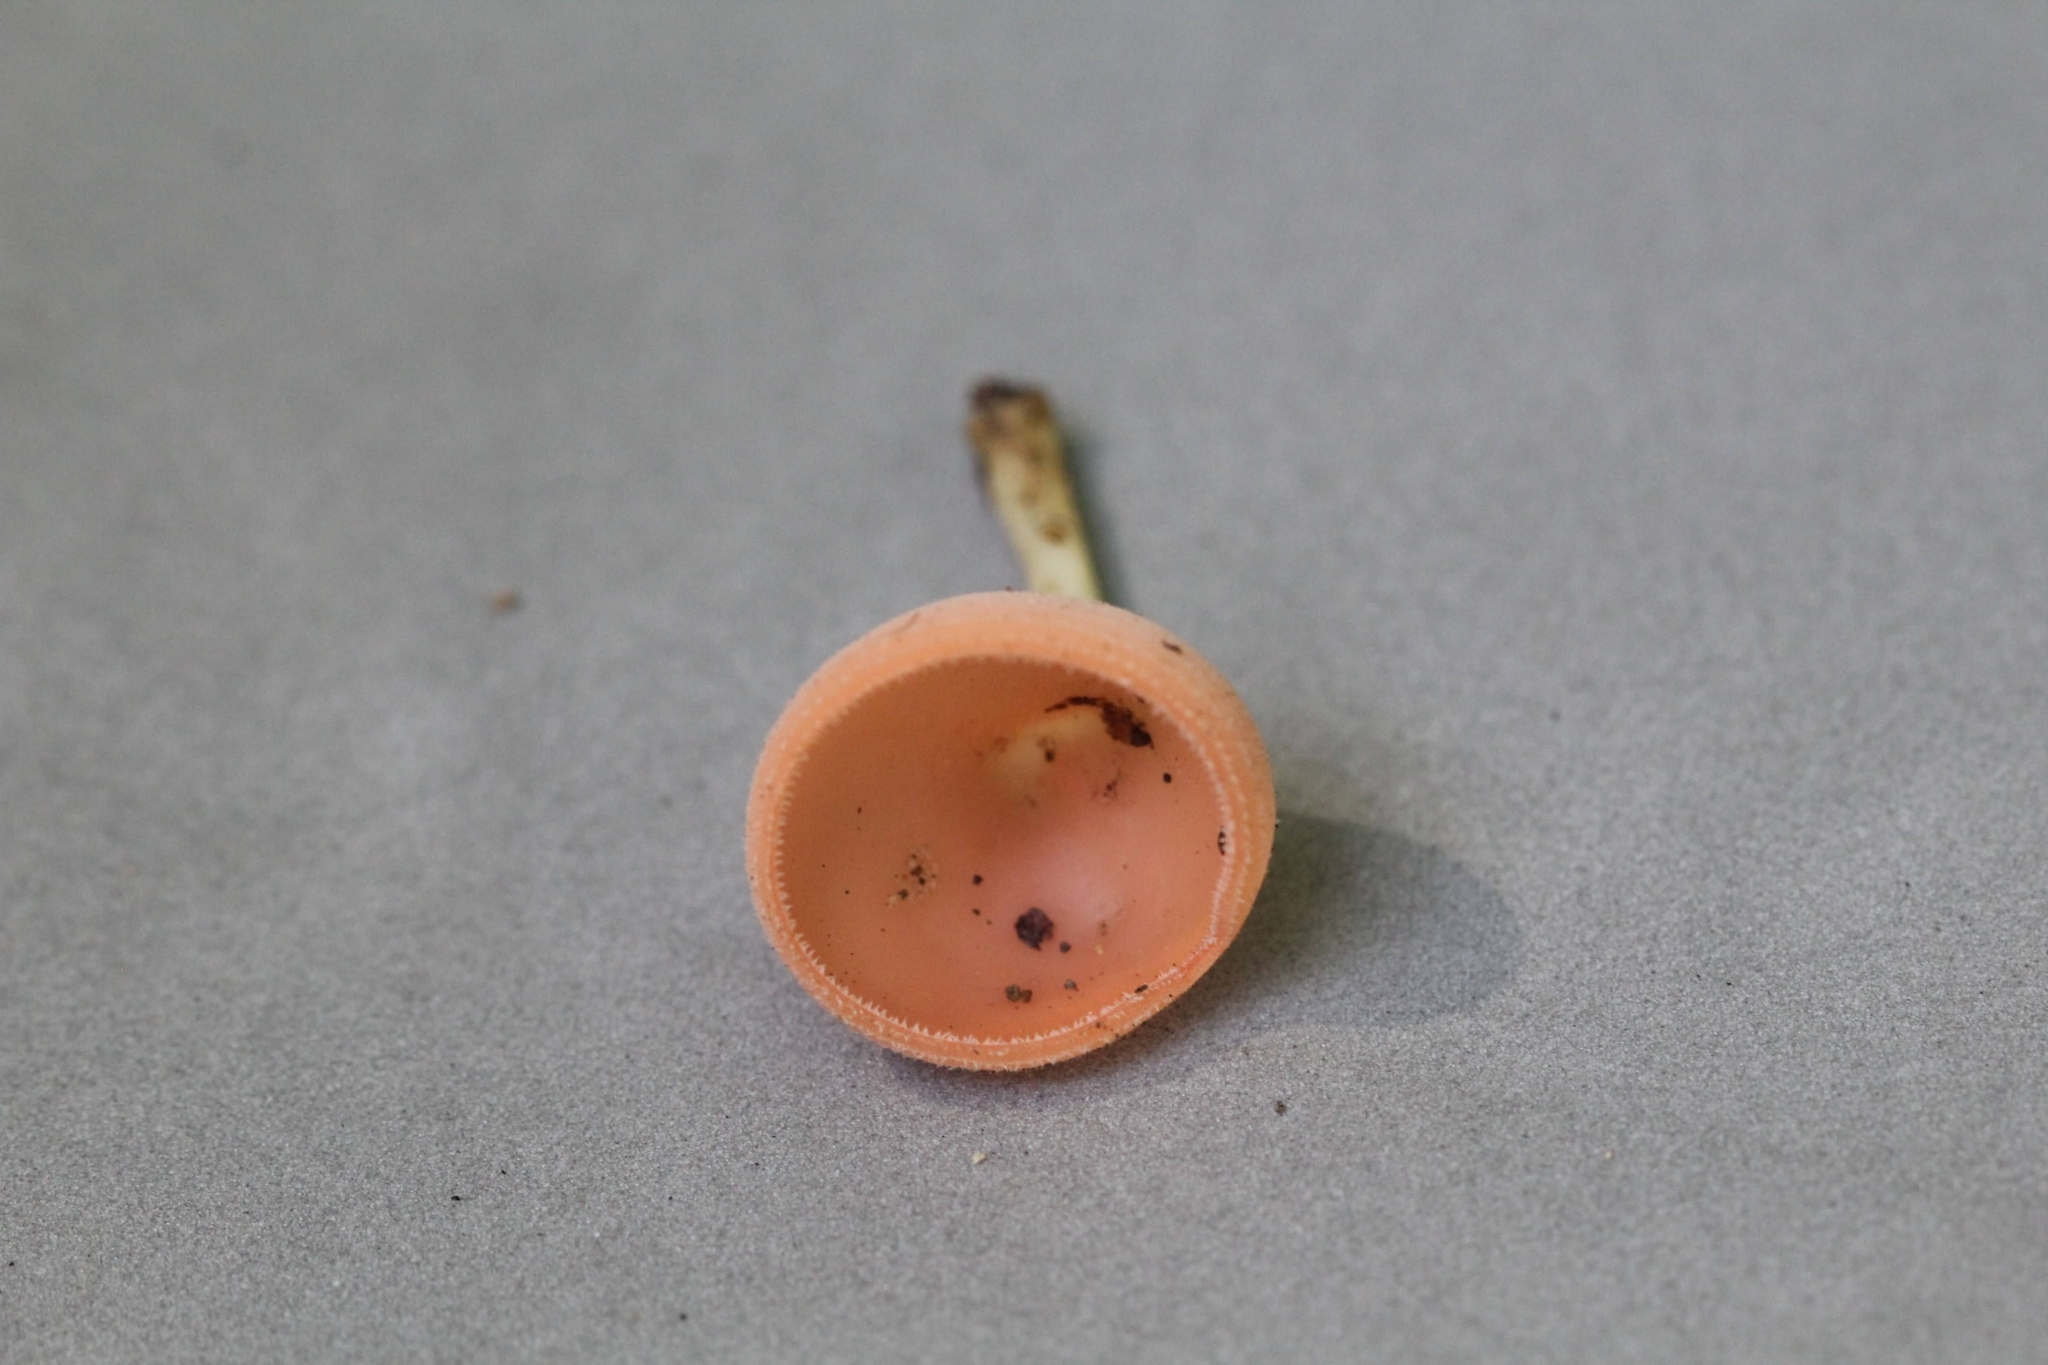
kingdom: Fungi
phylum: Ascomycota
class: Pezizomycetes
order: Pezizales
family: Sarcoscyphaceae
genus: Cookeina
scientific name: Cookeina speciosa
